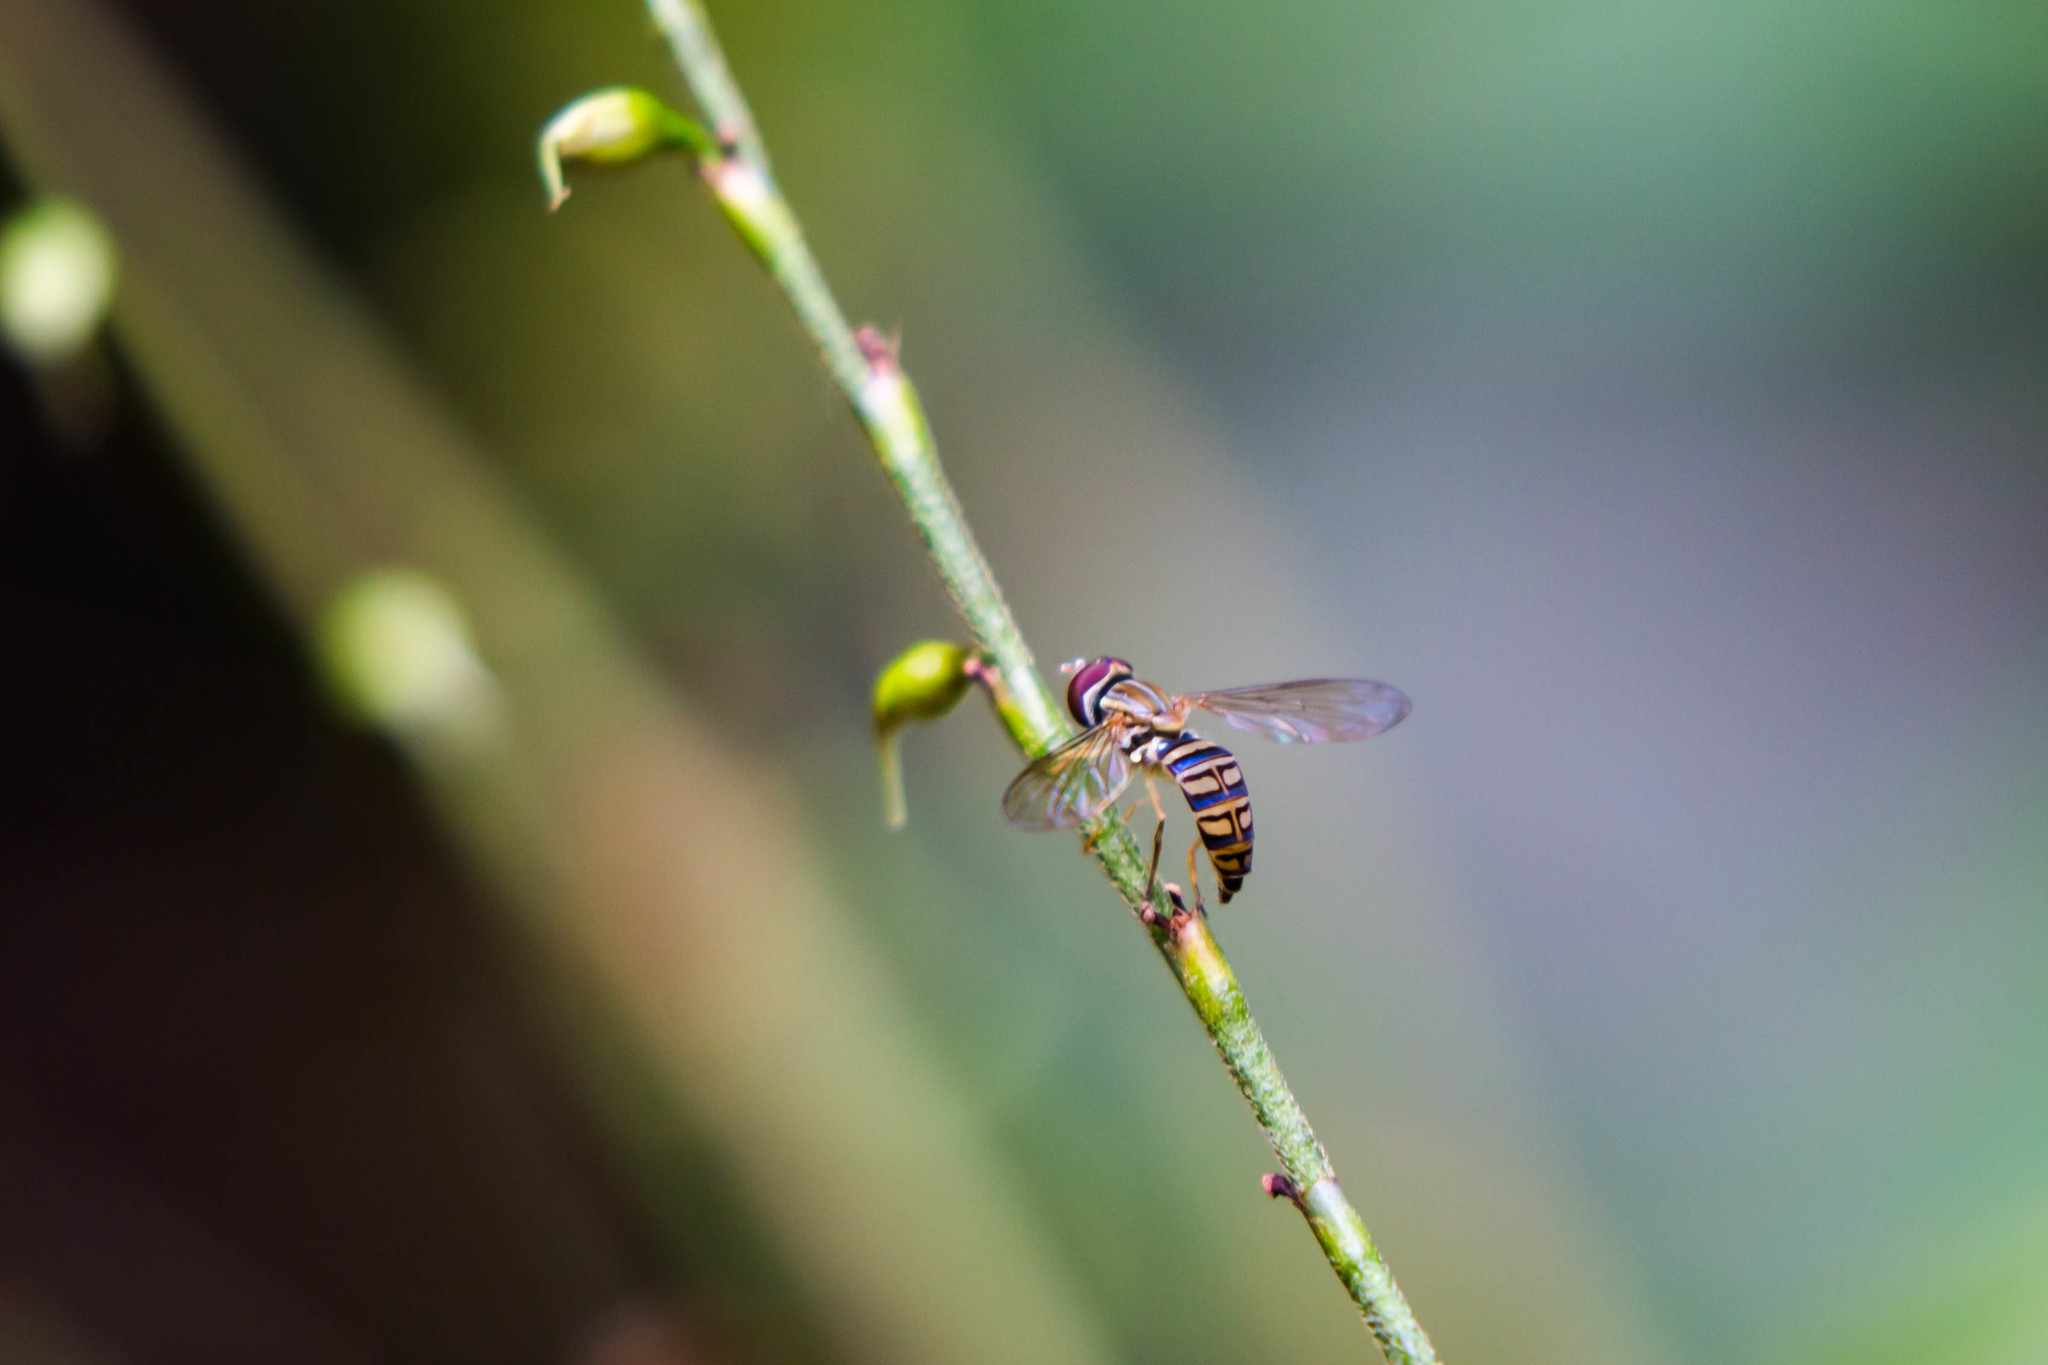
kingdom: Animalia
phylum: Arthropoda
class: Insecta
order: Diptera
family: Syrphidae
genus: Toxomerus
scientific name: Toxomerus politus
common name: Maize calligrapher
